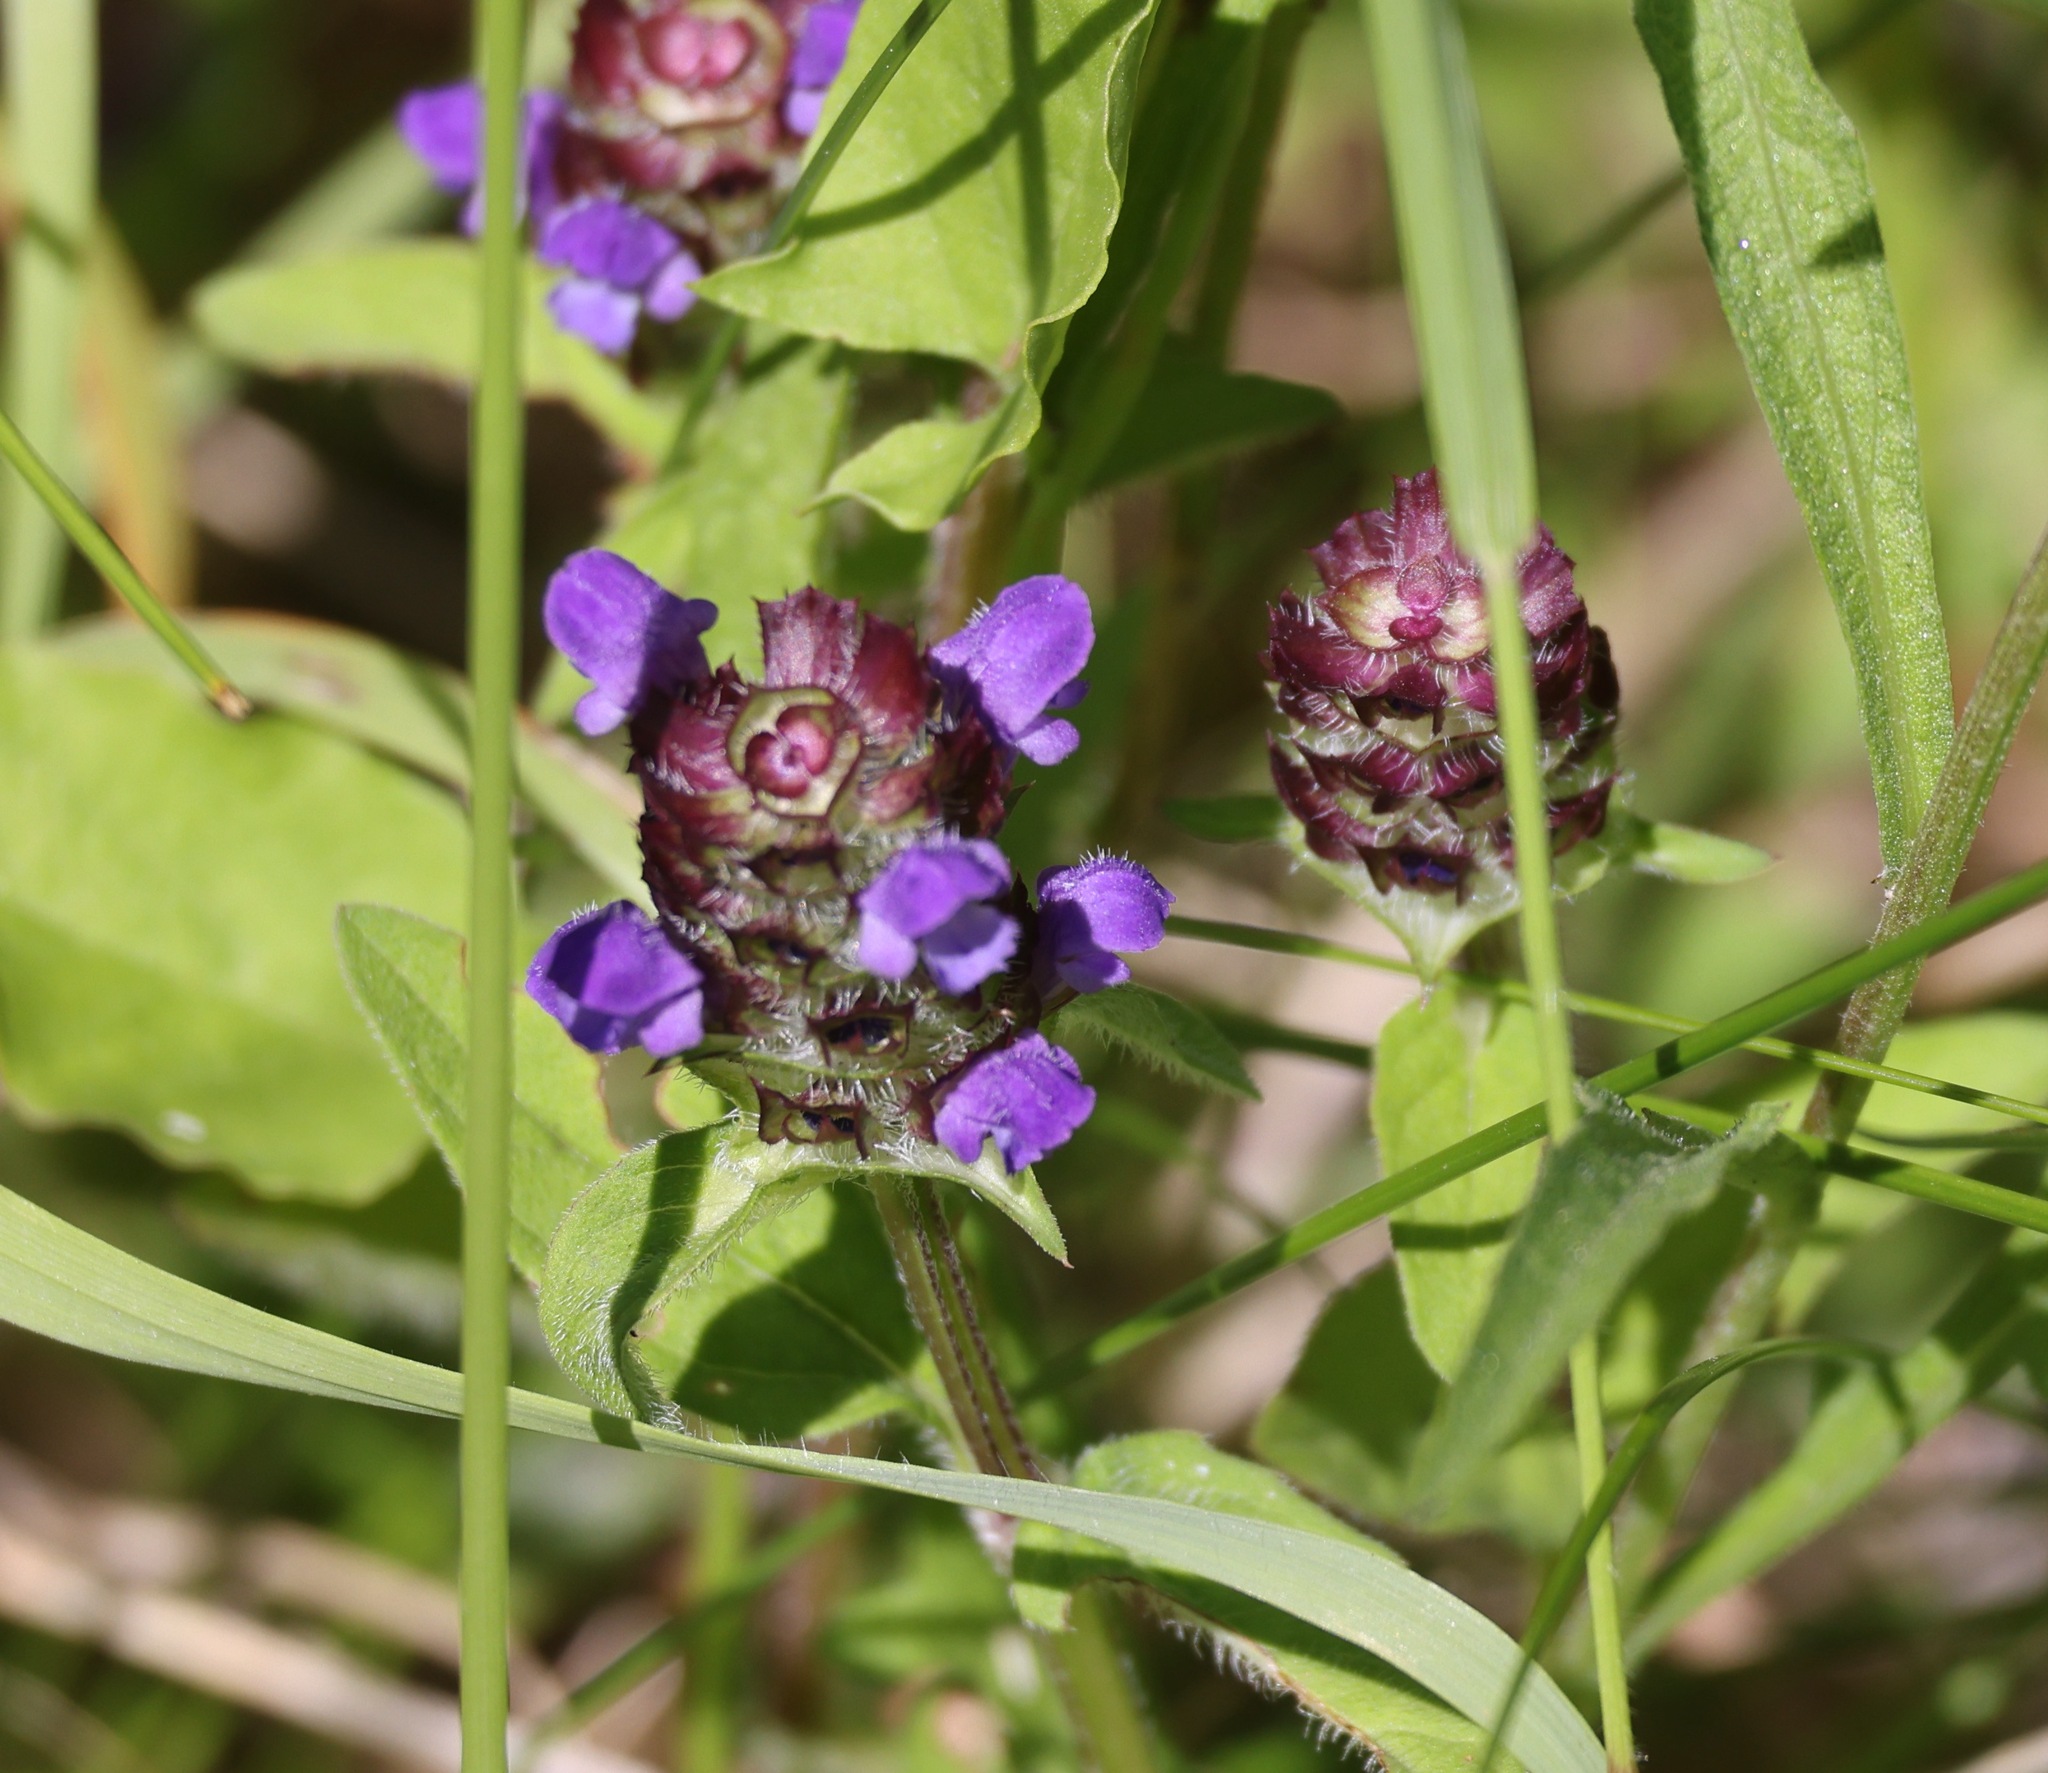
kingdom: Plantae
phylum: Tracheophyta
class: Magnoliopsida
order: Lamiales
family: Lamiaceae
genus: Prunella
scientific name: Prunella vulgaris
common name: Heal-all
